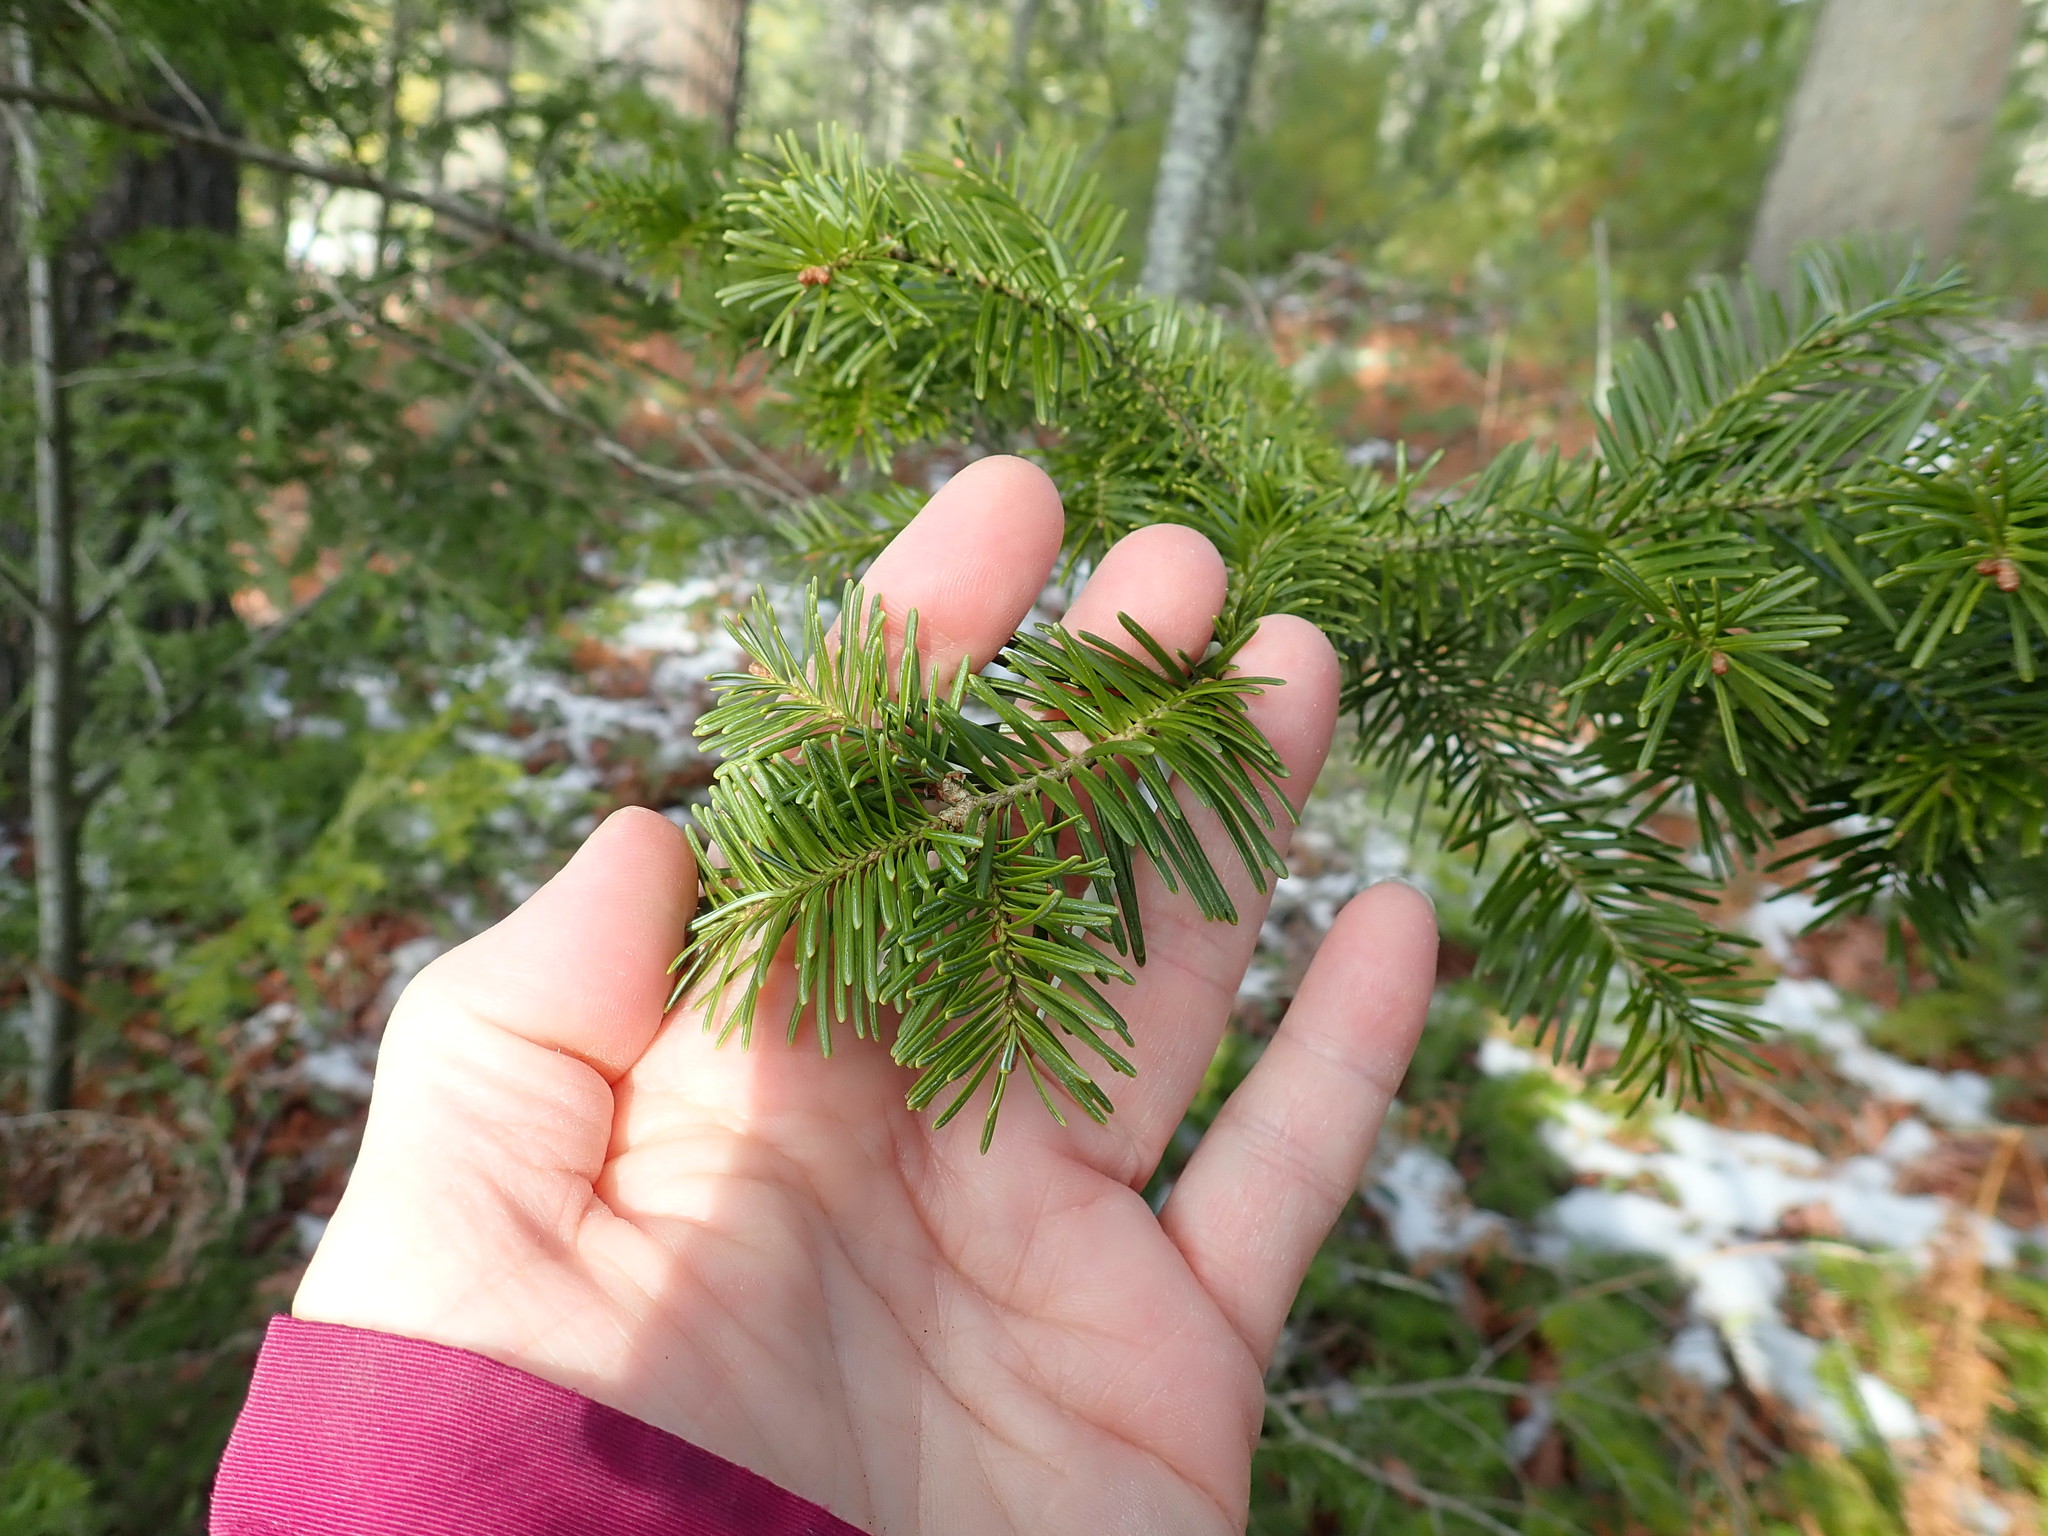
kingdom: Plantae
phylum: Tracheophyta
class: Pinopsida
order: Pinales
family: Pinaceae
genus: Abies
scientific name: Abies balsamea
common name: Balsam fir
